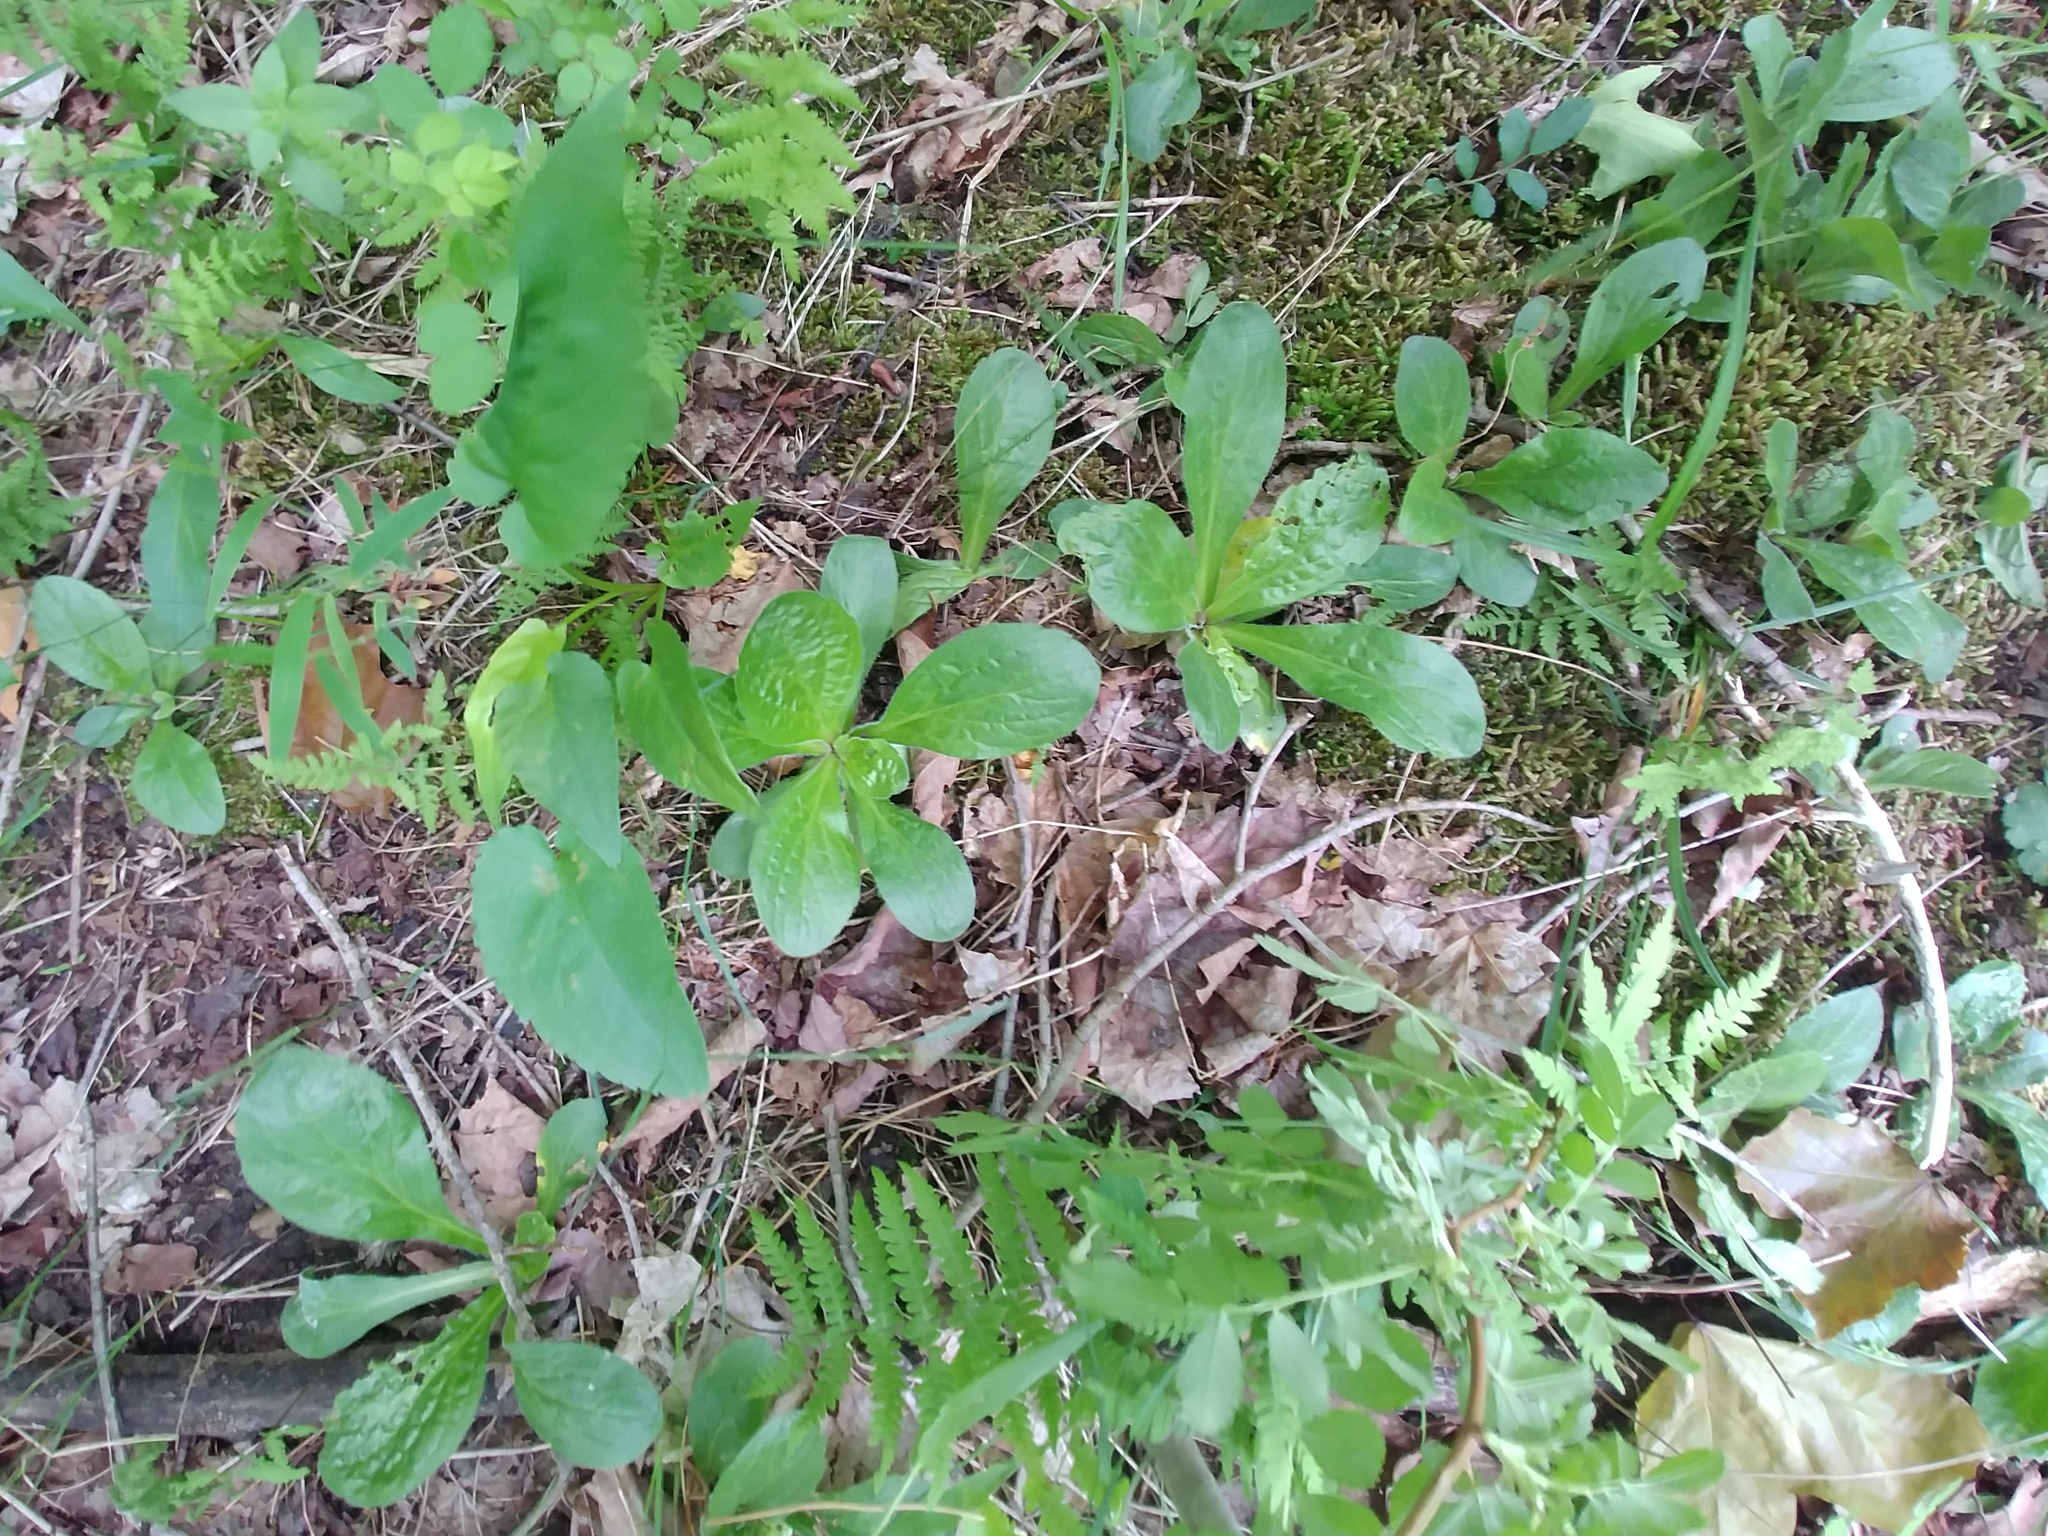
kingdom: Plantae
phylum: Tracheophyta
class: Magnoliopsida
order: Asterales
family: Asteraceae
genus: Erigeron
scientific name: Erigeron pulchellus
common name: Hairy fleabane
